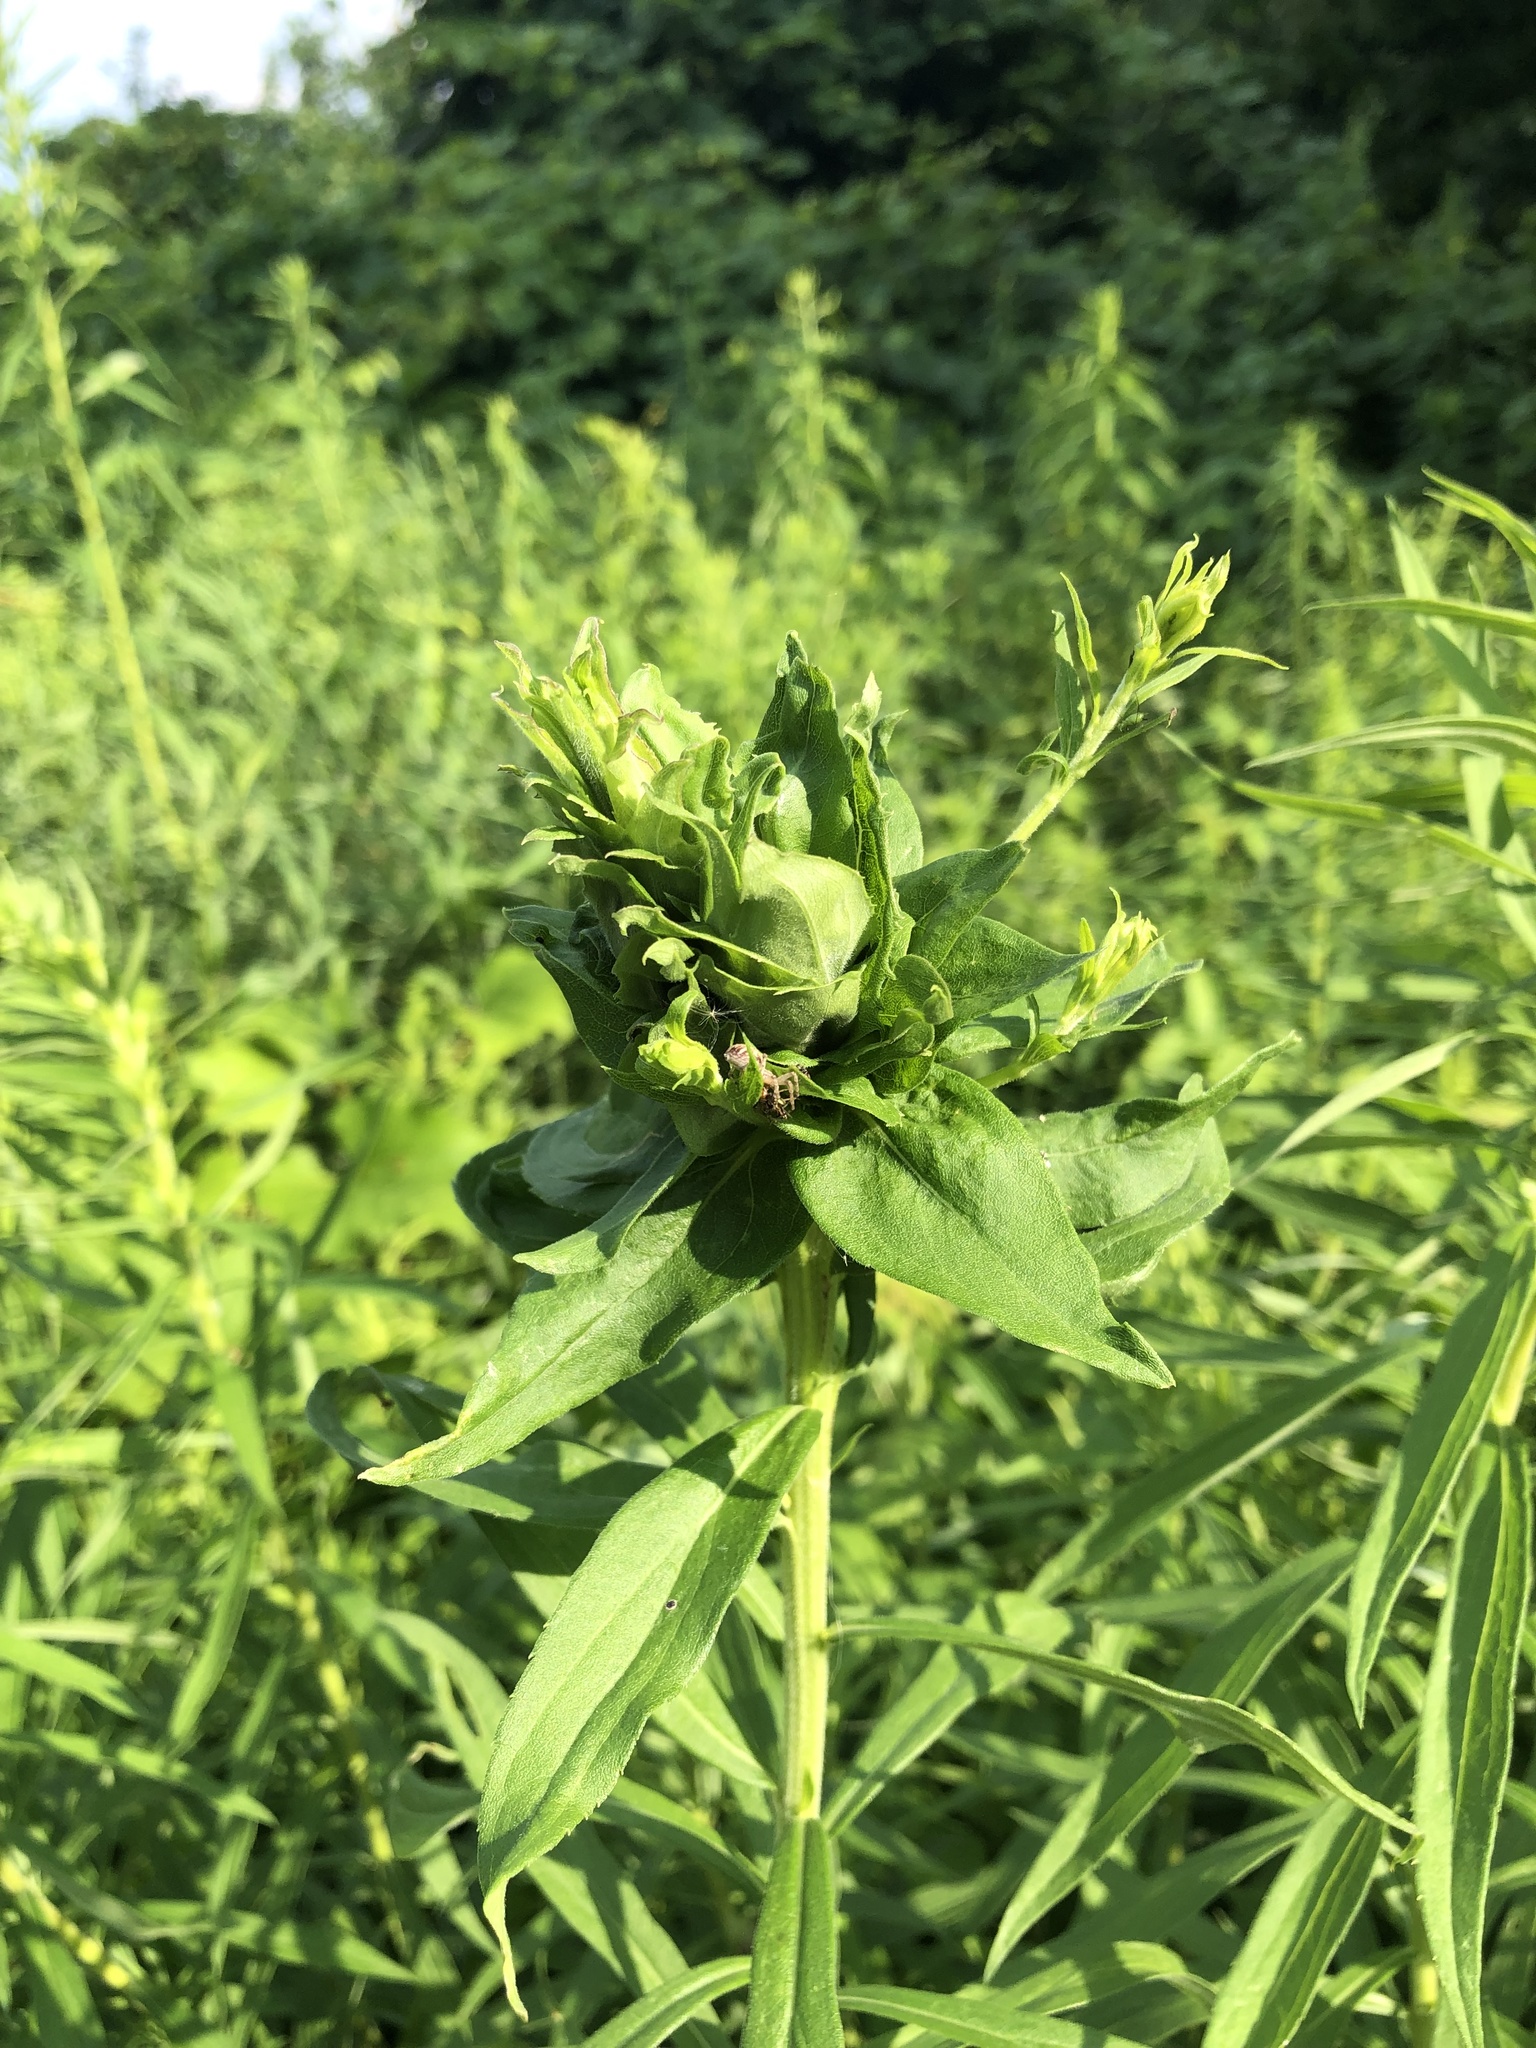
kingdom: Animalia
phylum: Arthropoda
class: Insecta
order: Diptera
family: Cecidomyiidae
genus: Rhopalomyia
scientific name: Rhopalomyia solidaginis
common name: Goldenrod bunch gall midge
